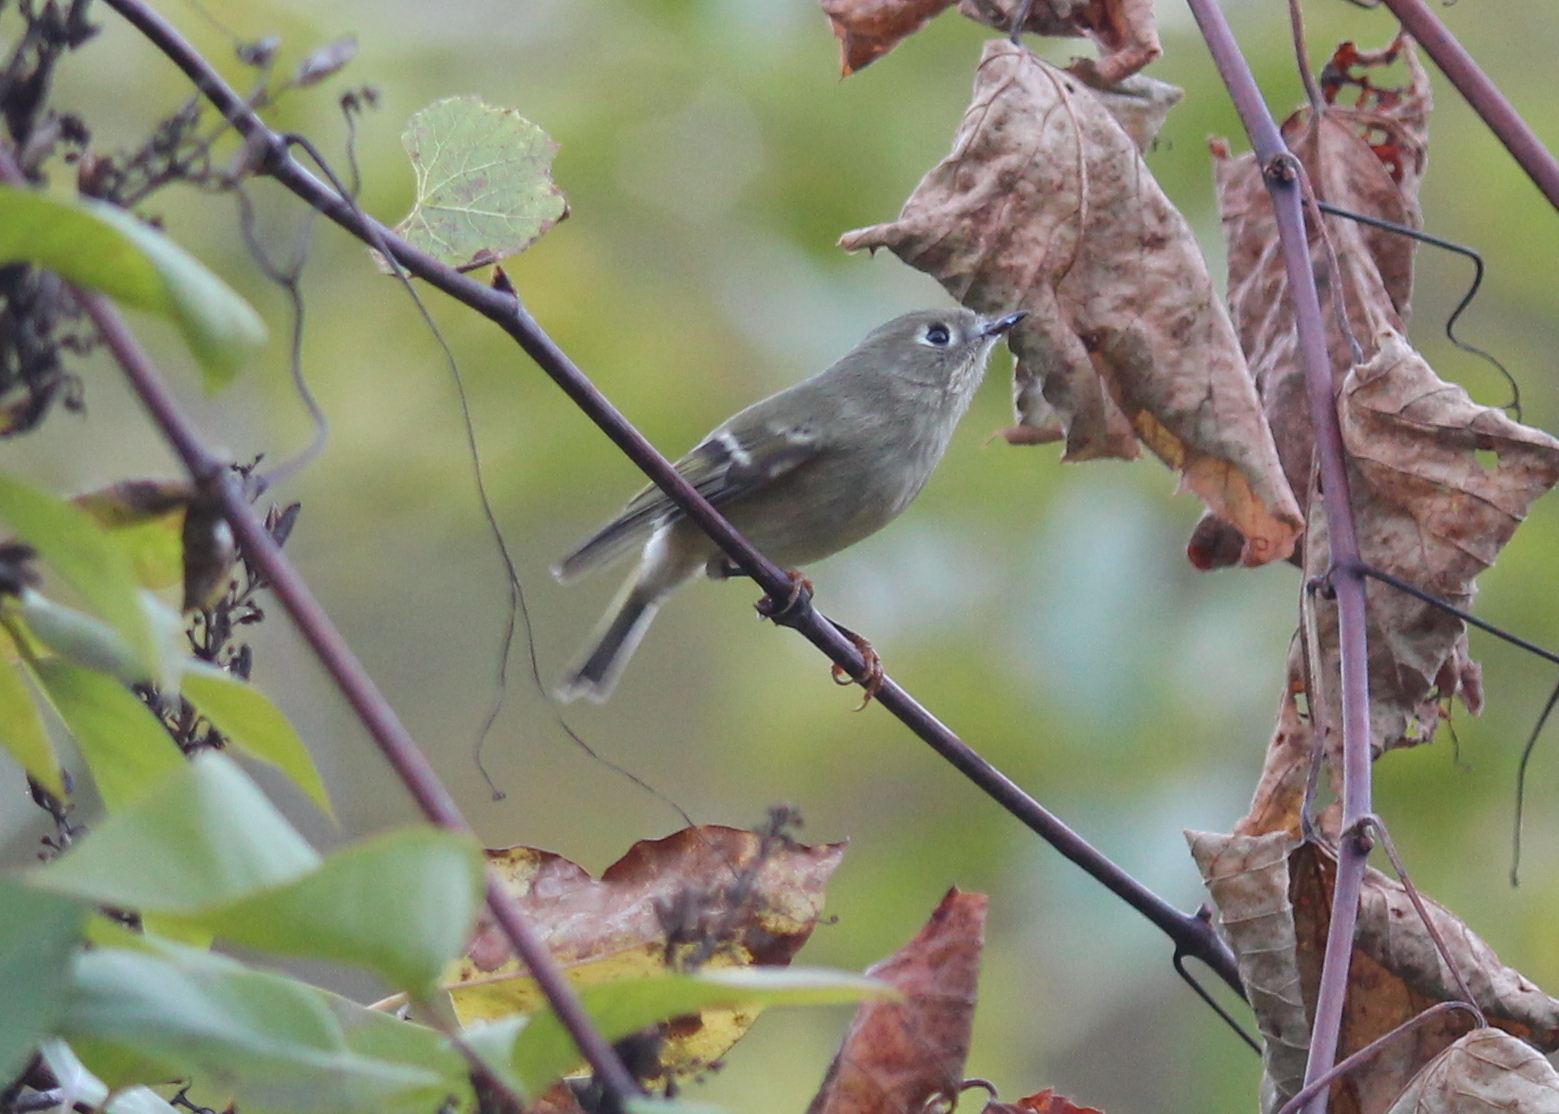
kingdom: Animalia
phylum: Chordata
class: Aves
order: Passeriformes
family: Regulidae
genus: Regulus
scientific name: Regulus calendula
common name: Ruby-crowned kinglet
